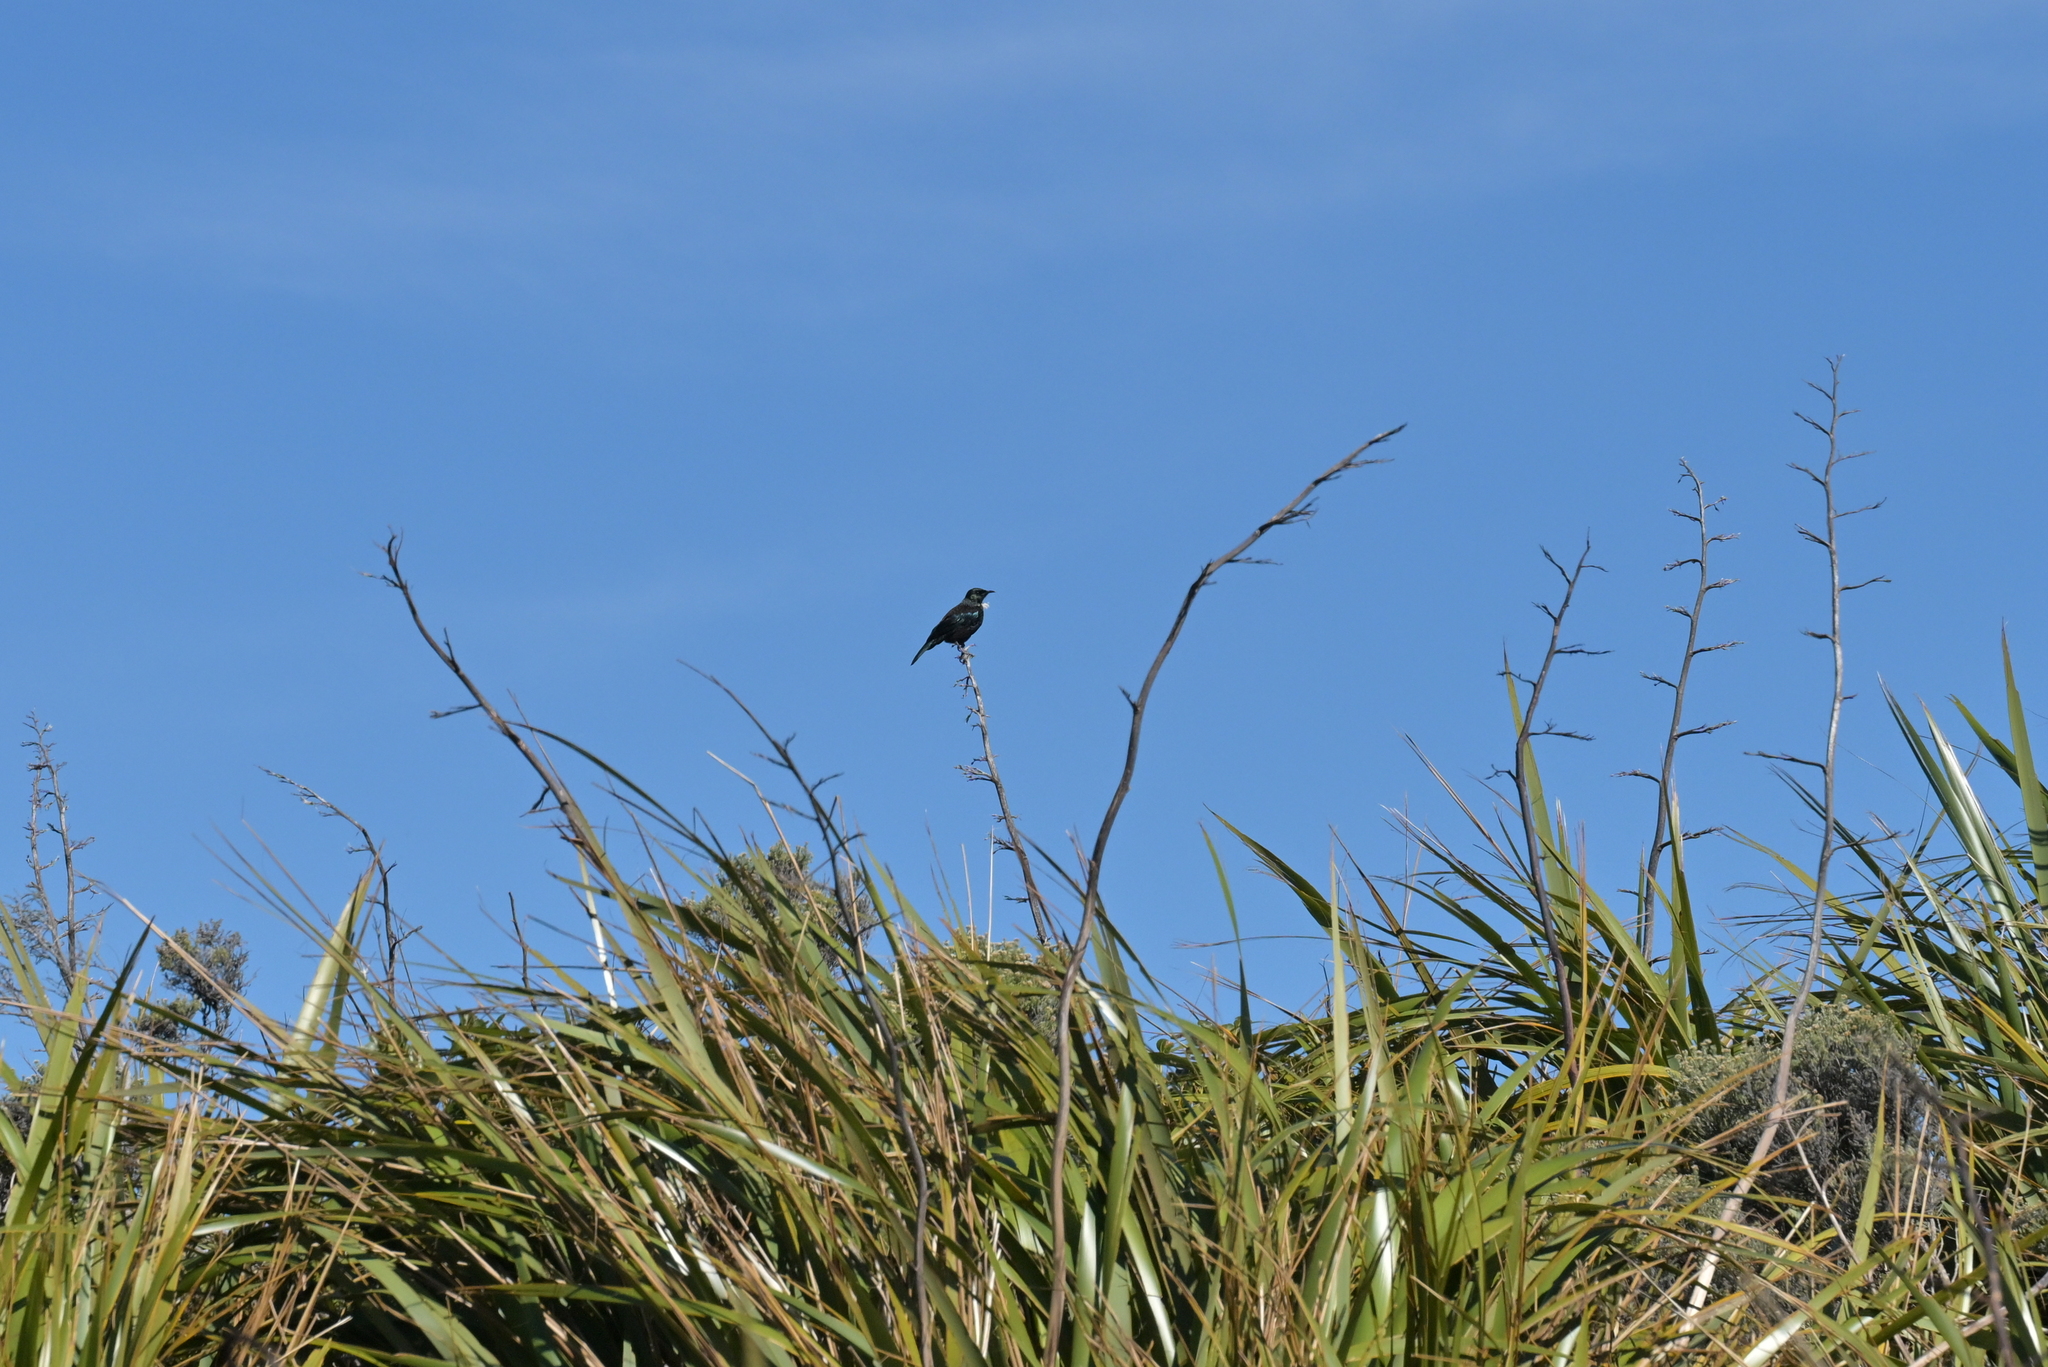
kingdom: Animalia
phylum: Chordata
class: Aves
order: Passeriformes
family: Meliphagidae
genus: Prosthemadera
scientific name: Prosthemadera novaeseelandiae
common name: Tui
